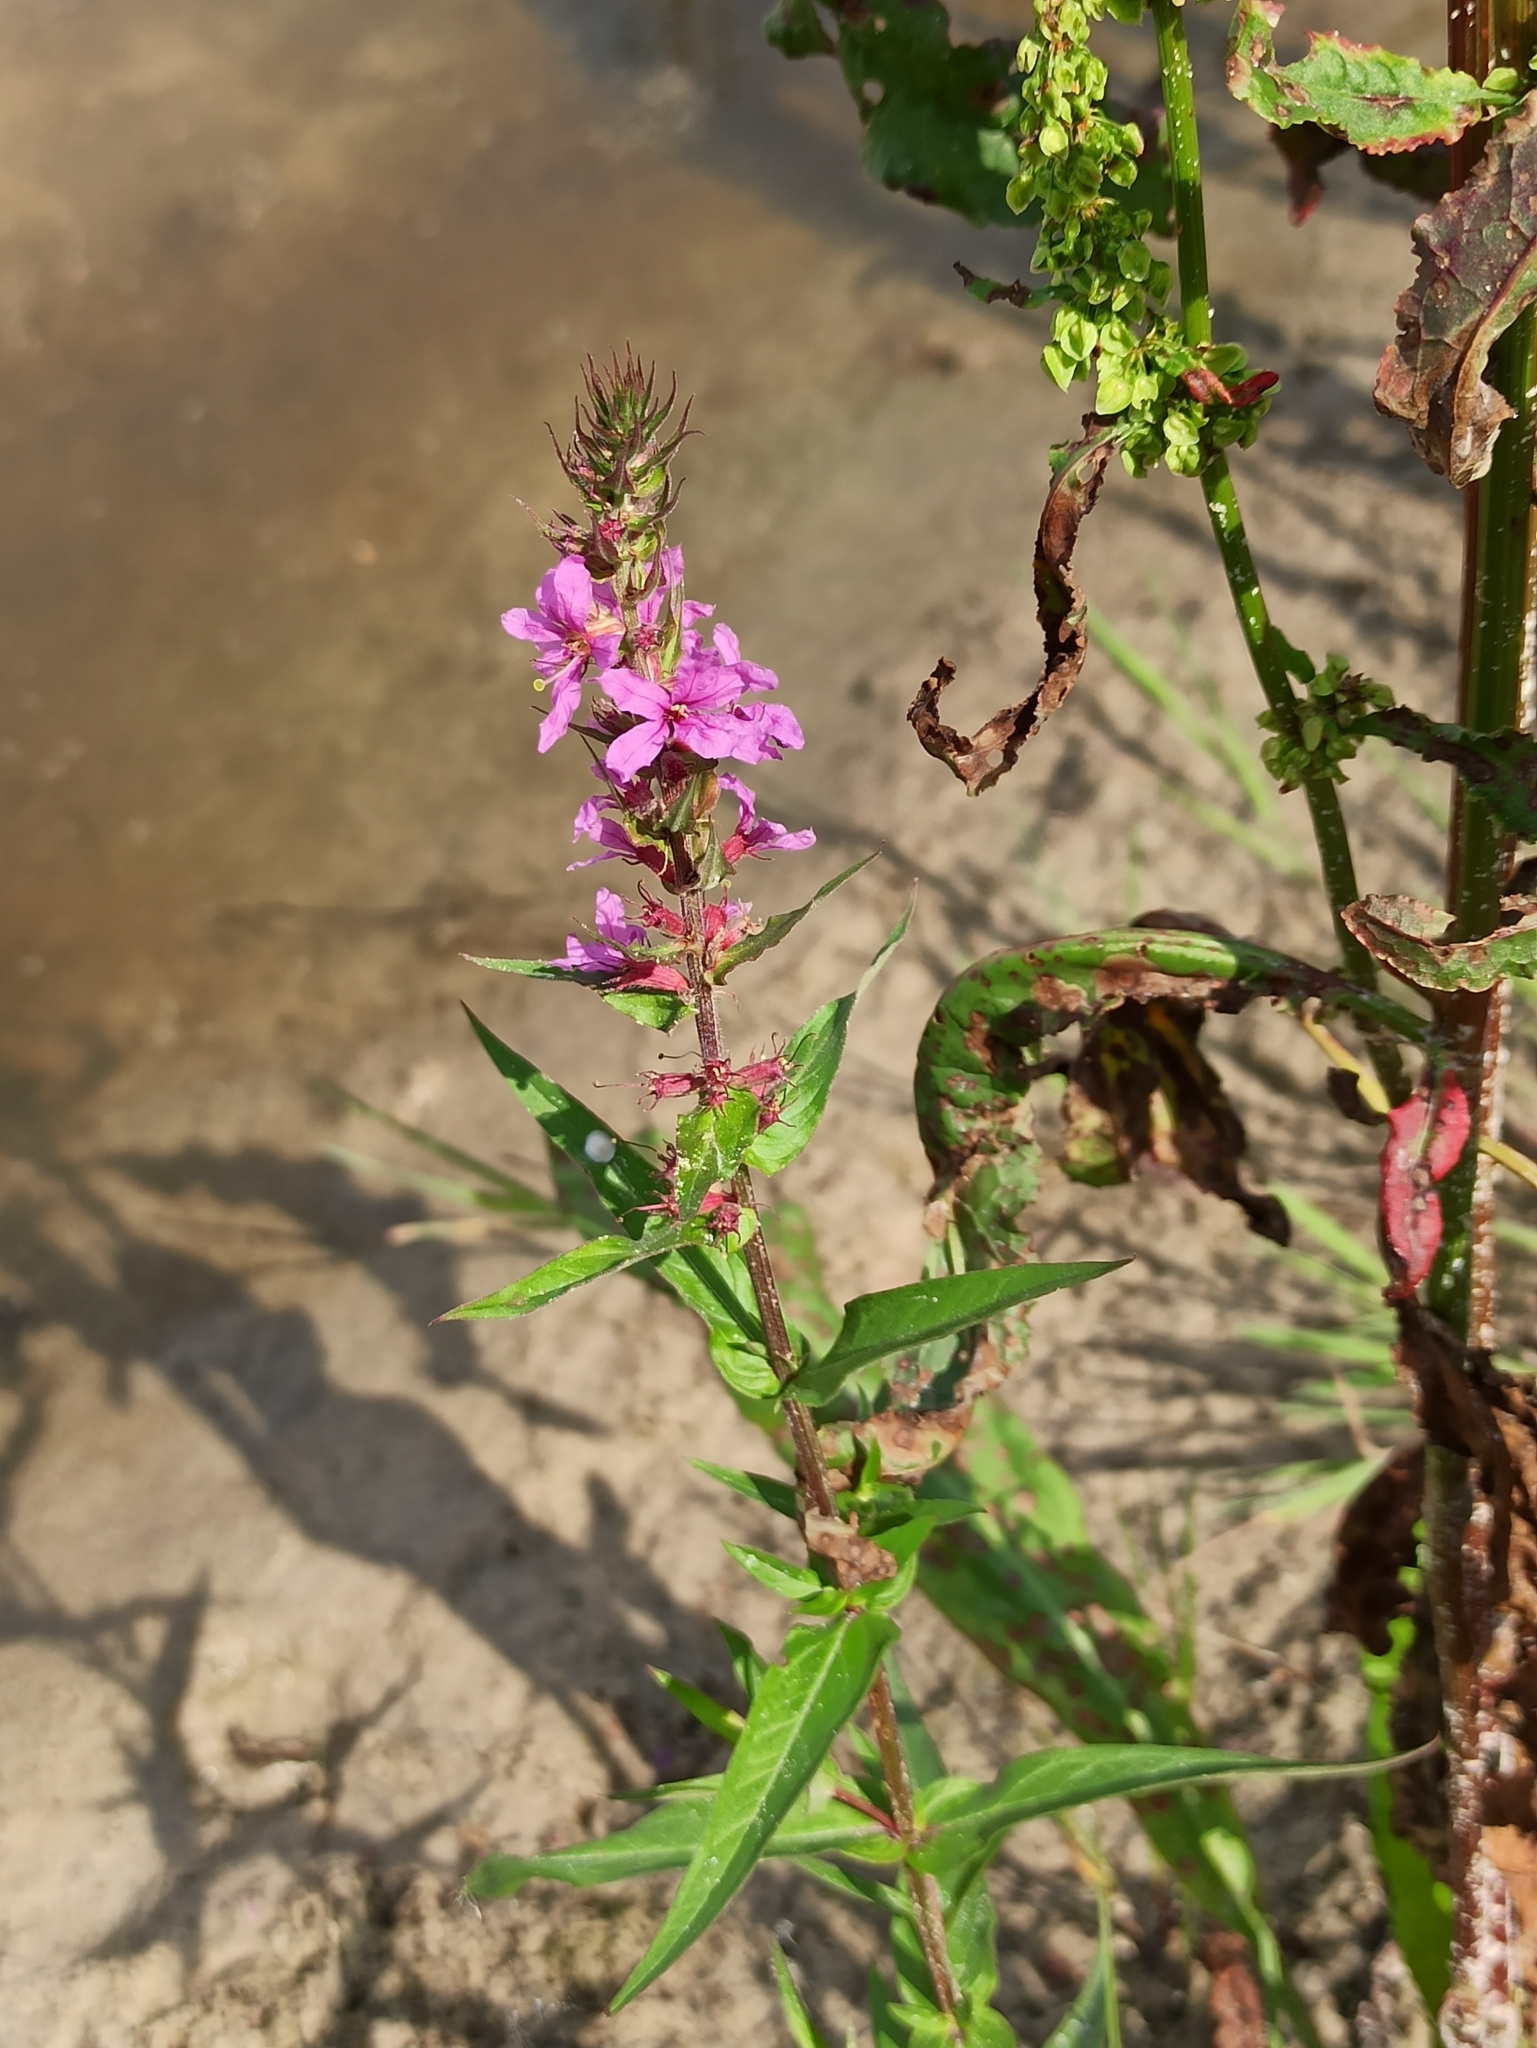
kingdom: Plantae
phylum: Tracheophyta
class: Magnoliopsida
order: Myrtales
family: Lythraceae
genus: Lythrum
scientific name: Lythrum salicaria
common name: Purple loosestrife
